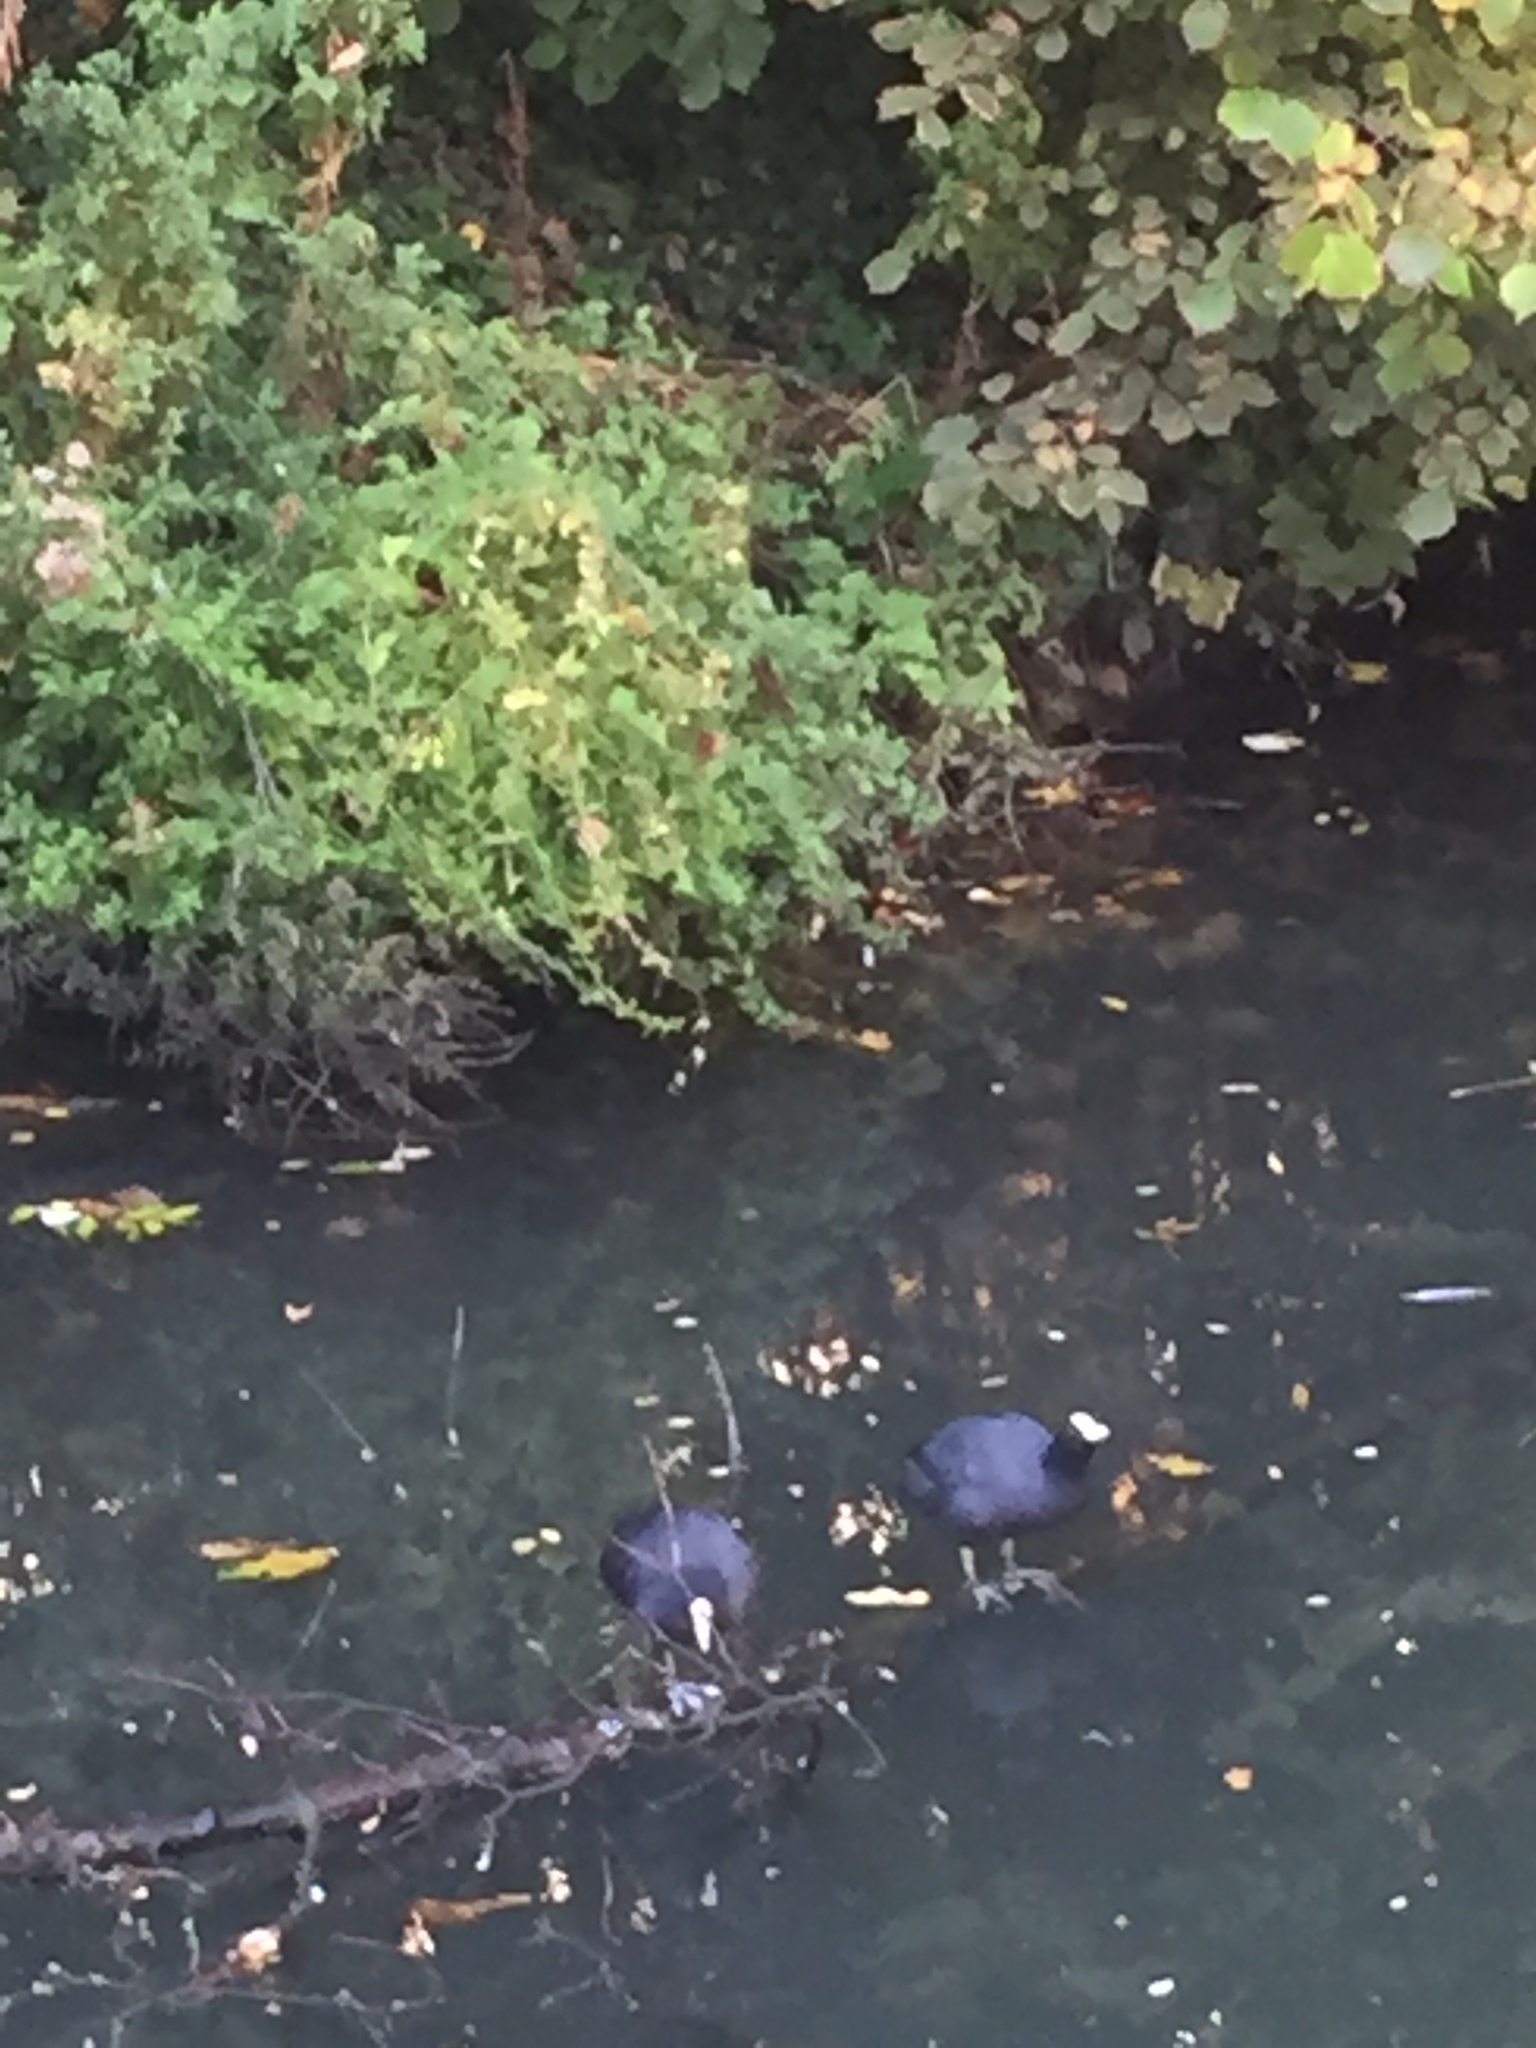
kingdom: Animalia
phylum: Chordata
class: Aves
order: Gruiformes
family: Rallidae
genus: Fulica
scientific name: Fulica atra
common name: Eurasian coot
